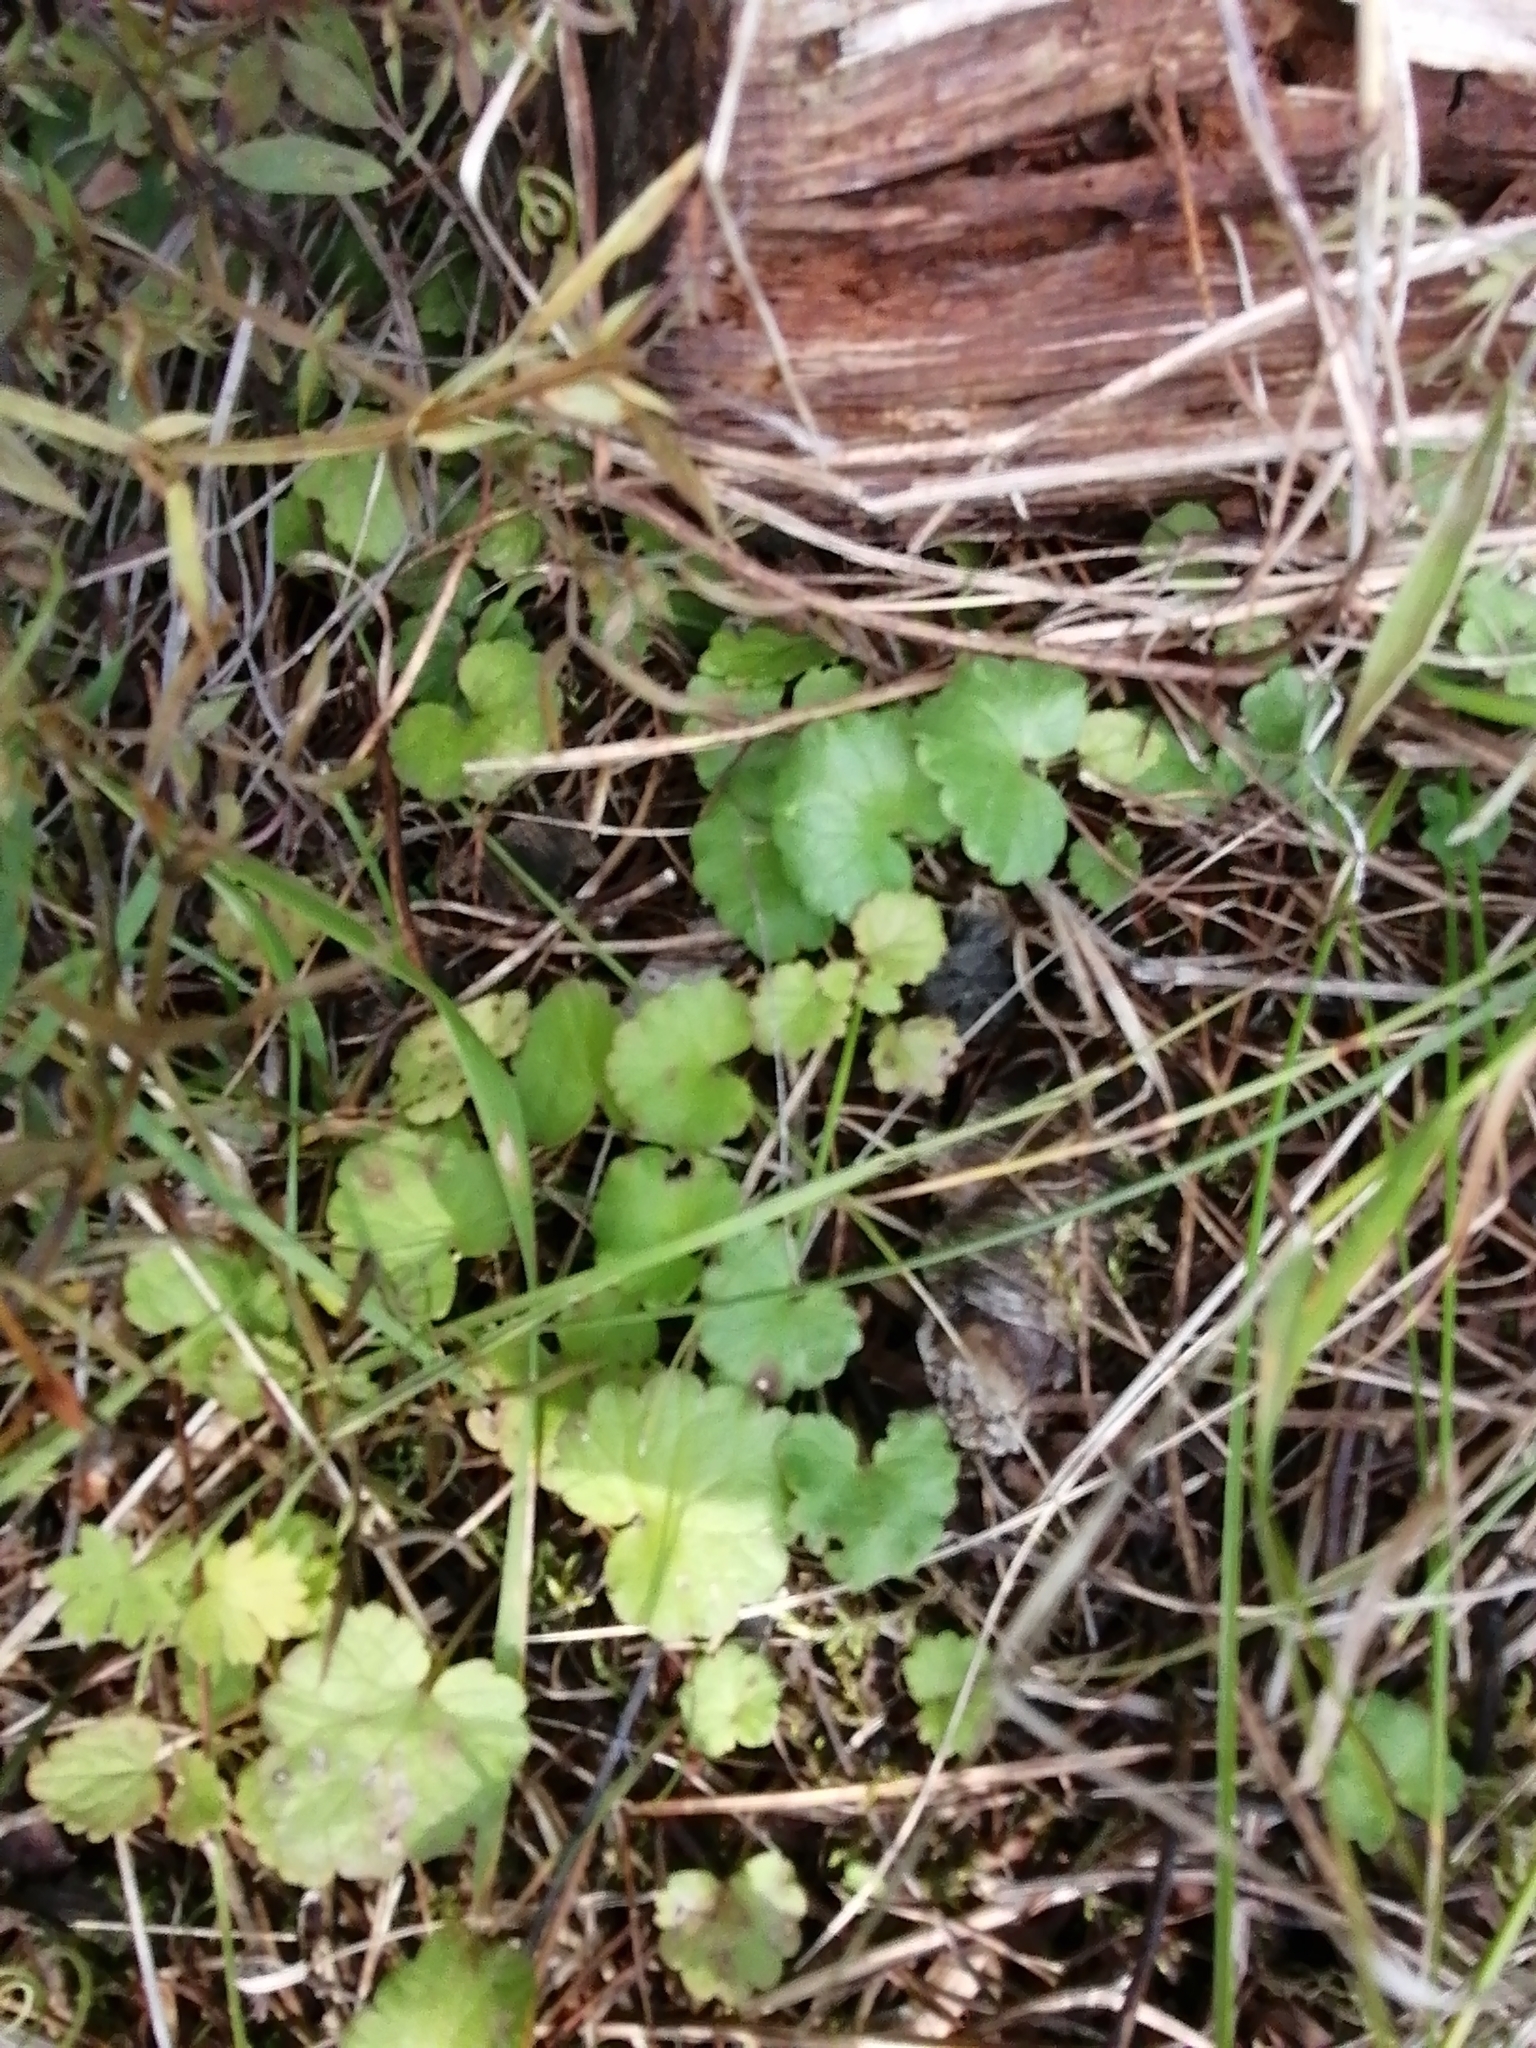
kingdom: Plantae
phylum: Tracheophyta
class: Magnoliopsida
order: Lamiales
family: Lamiaceae
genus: Glechoma
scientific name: Glechoma hederacea
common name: Ground ivy
